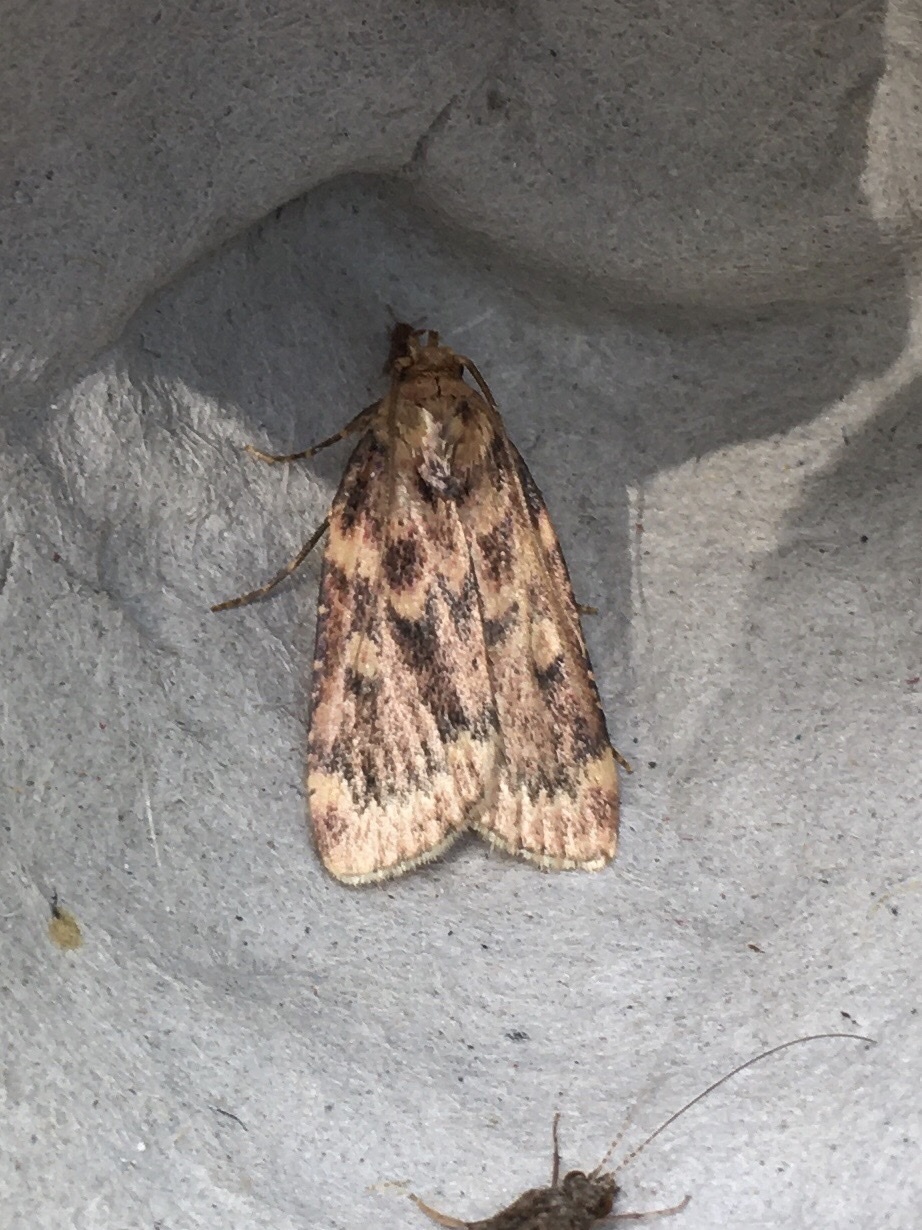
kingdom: Animalia
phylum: Arthropoda
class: Insecta
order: Lepidoptera
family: Pyralidae
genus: Aglossa
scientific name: Aglossa cuprina
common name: Grease moth
